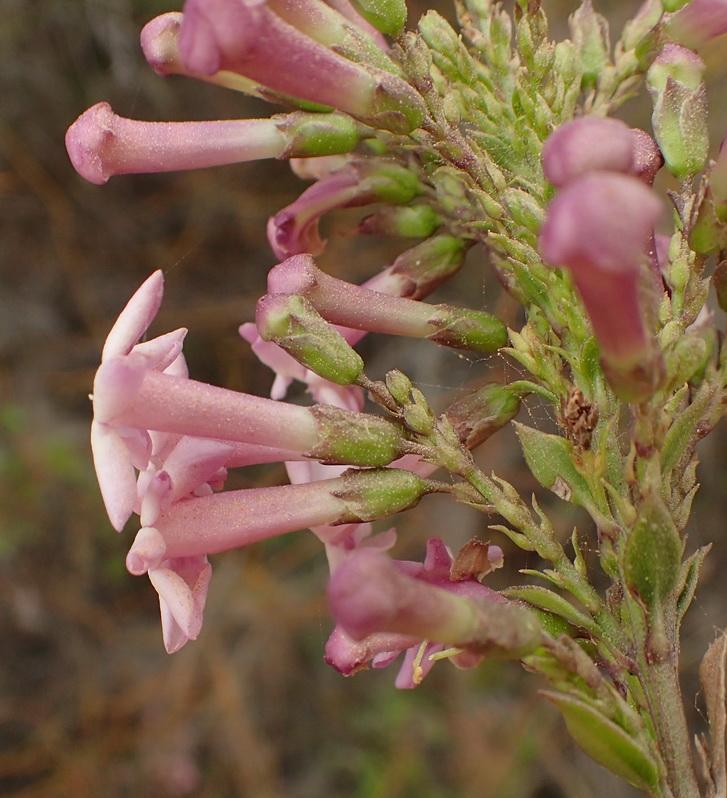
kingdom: Plantae
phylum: Tracheophyta
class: Magnoliopsida
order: Lamiales
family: Scrophulariaceae
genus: Freylinia
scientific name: Freylinia undulata
